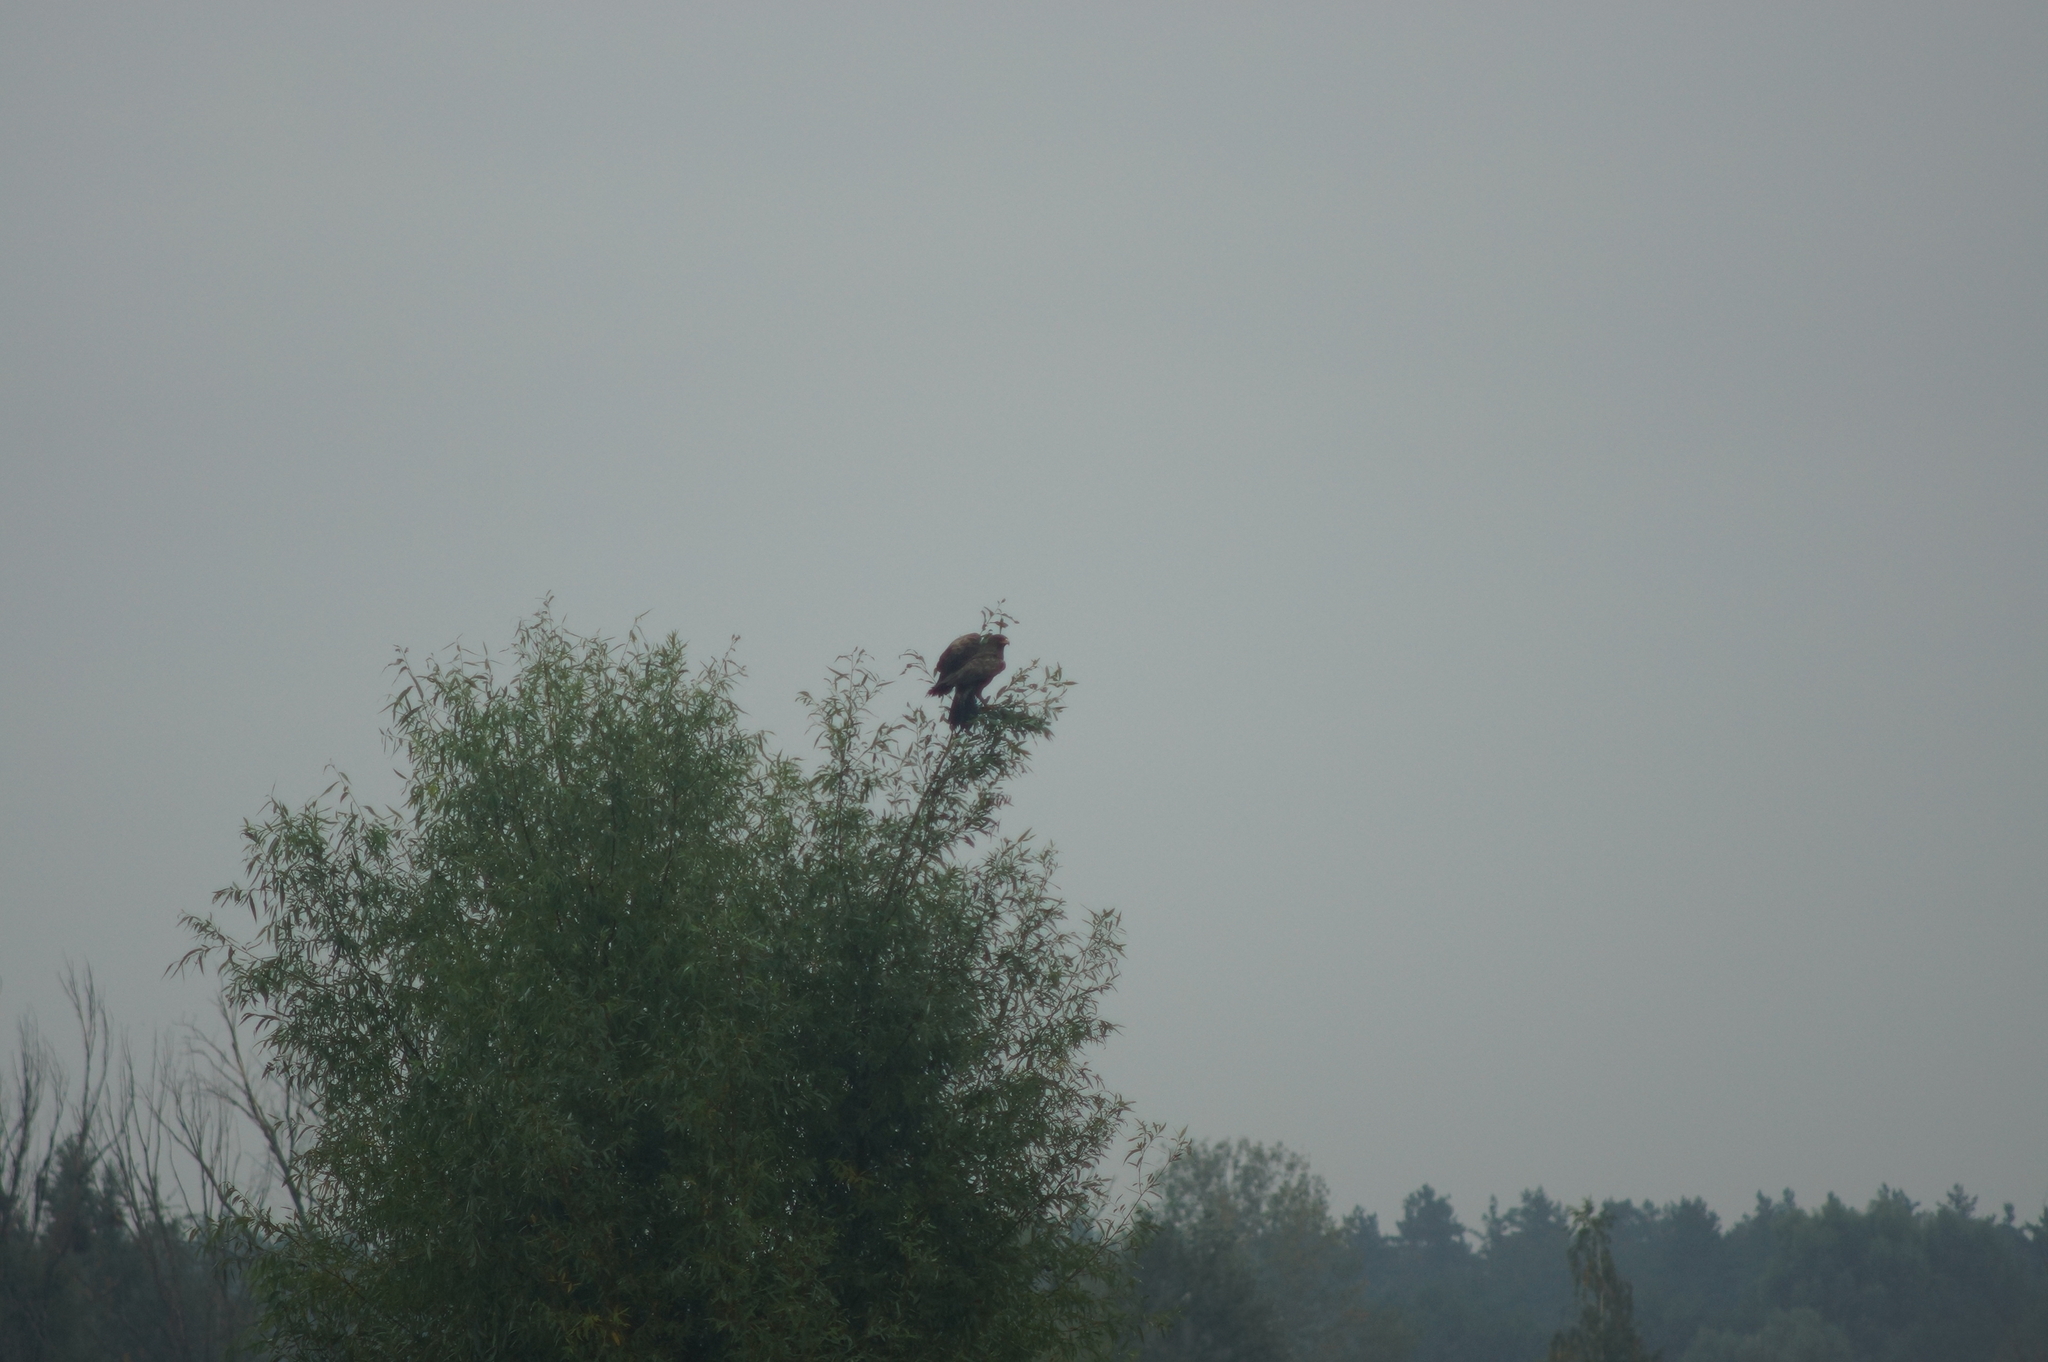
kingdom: Animalia
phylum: Chordata
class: Aves
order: Accipitriformes
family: Accipitridae
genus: Aquila
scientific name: Aquila pomarina
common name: Lesser spotted eagle
